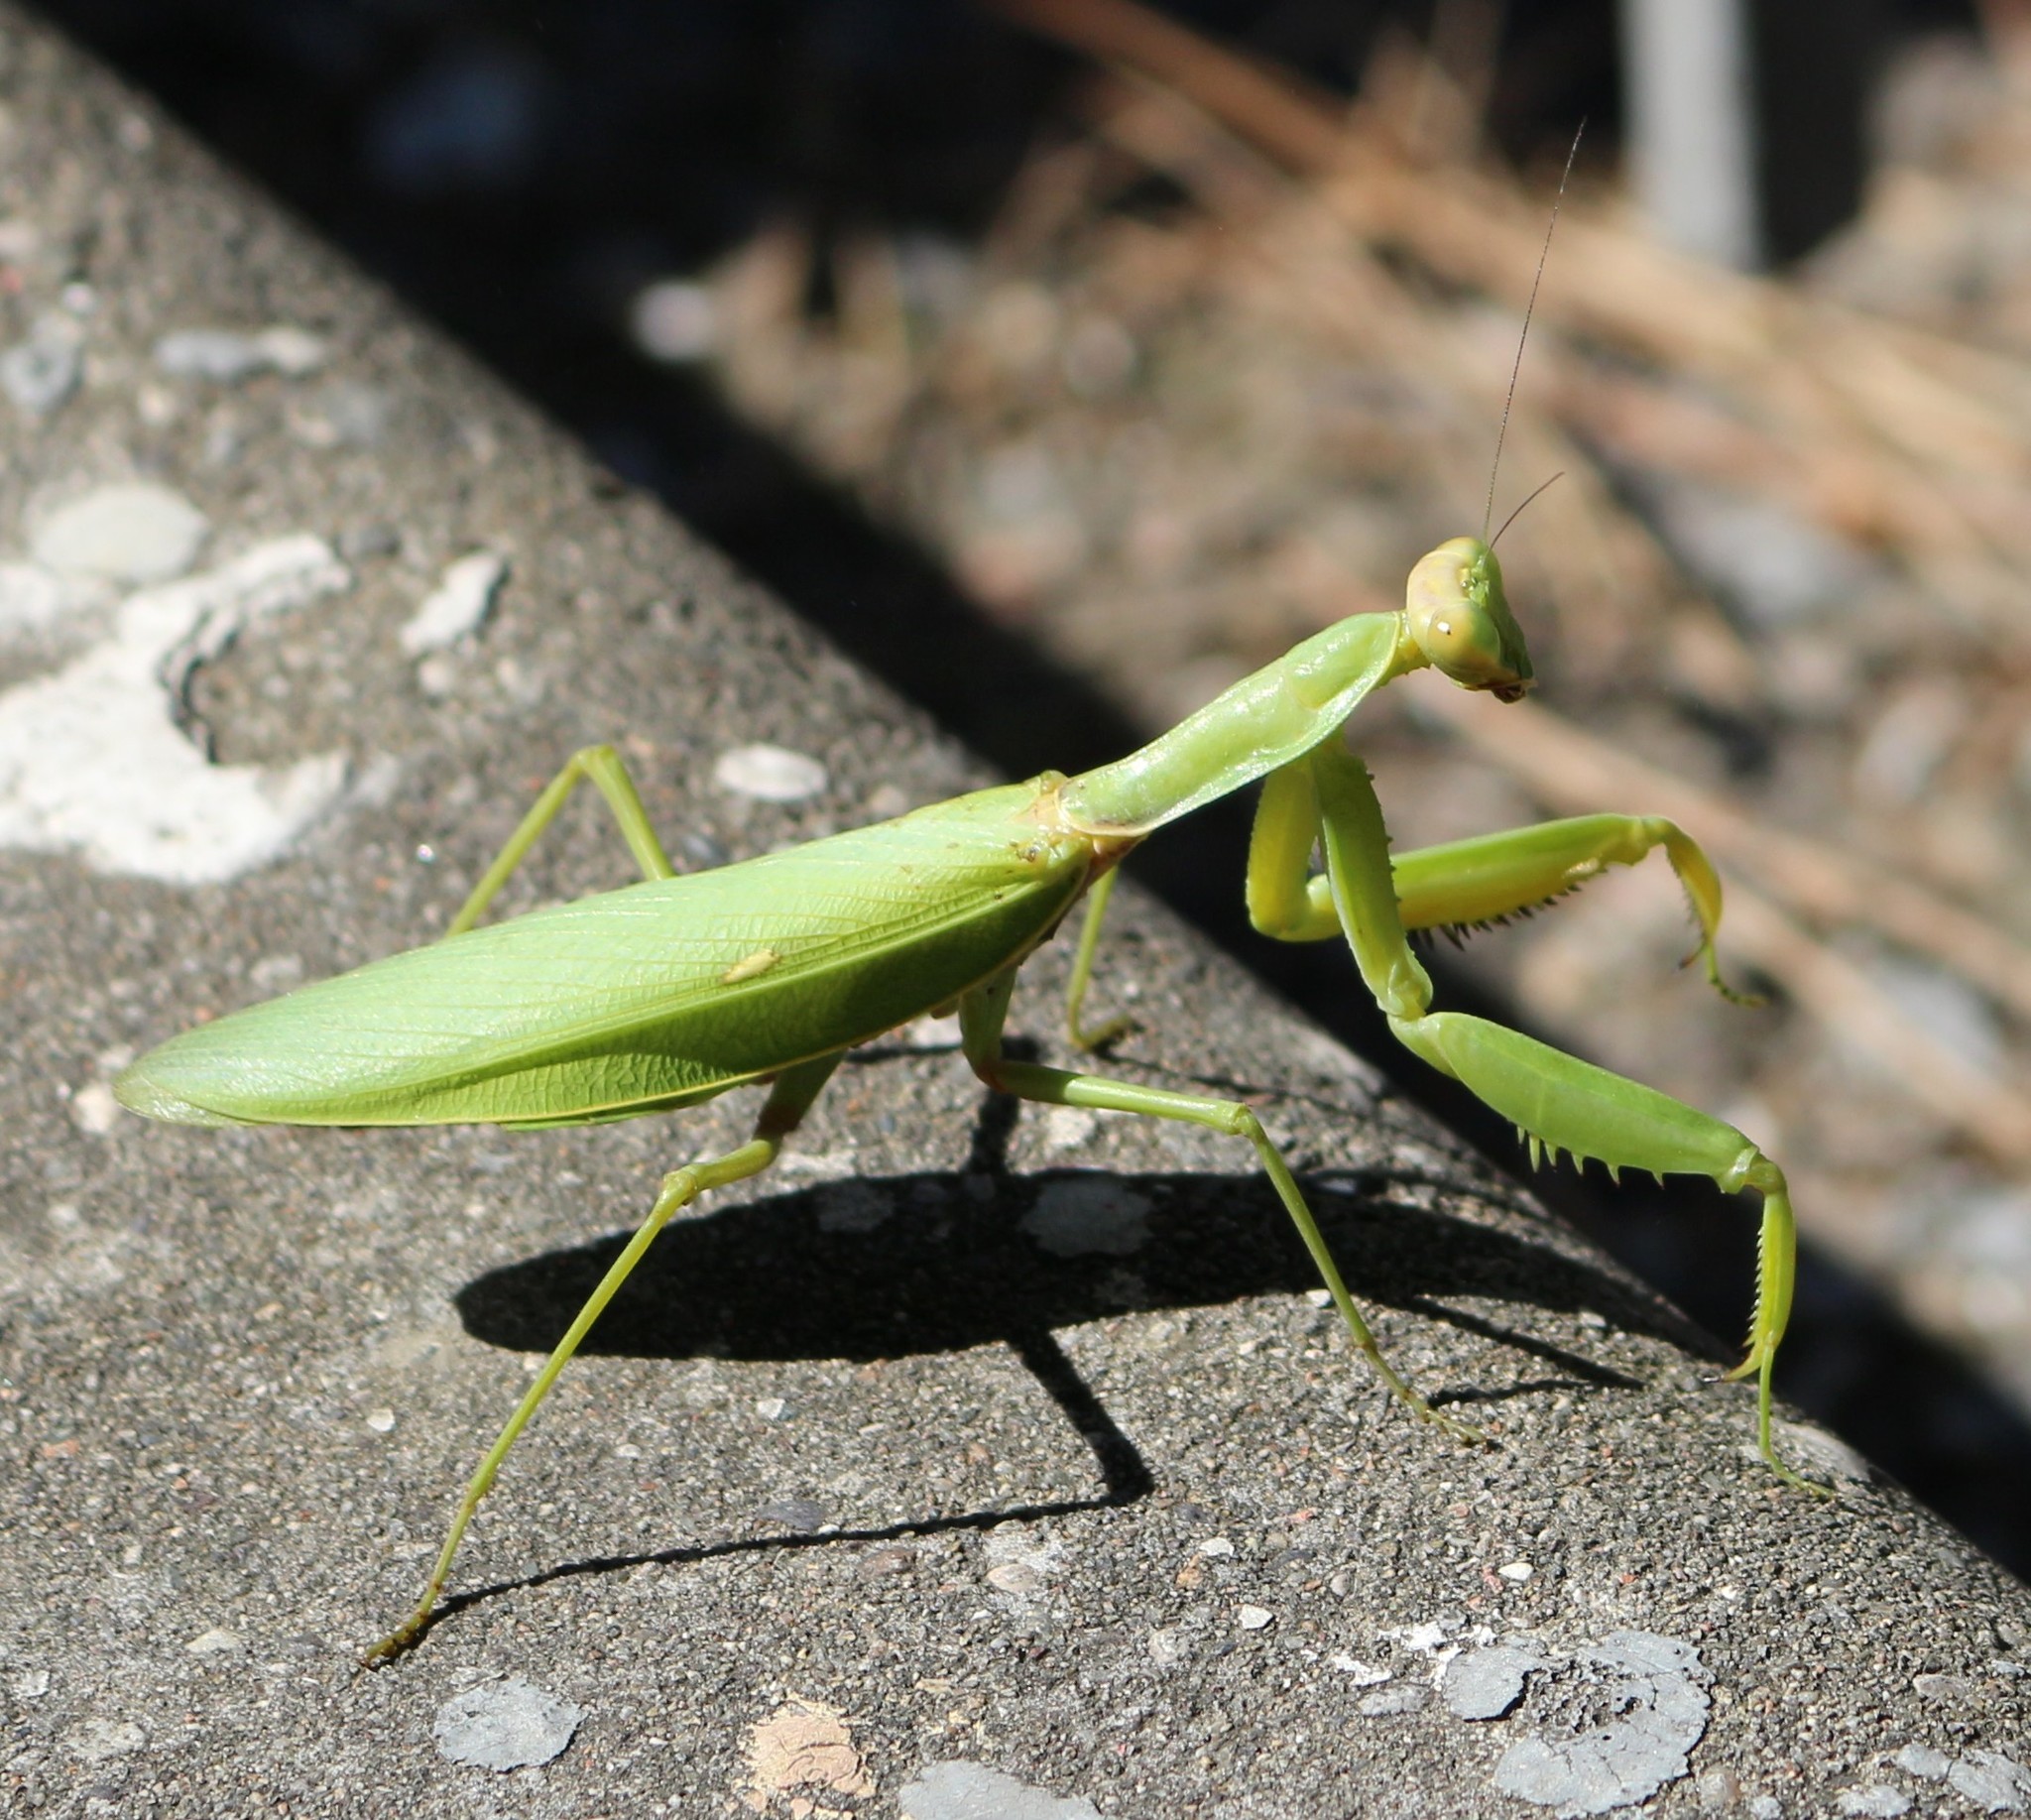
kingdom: Animalia
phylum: Arthropoda
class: Insecta
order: Mantodea
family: Mantidae
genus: Hierodula
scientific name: Hierodula transcaucasica
